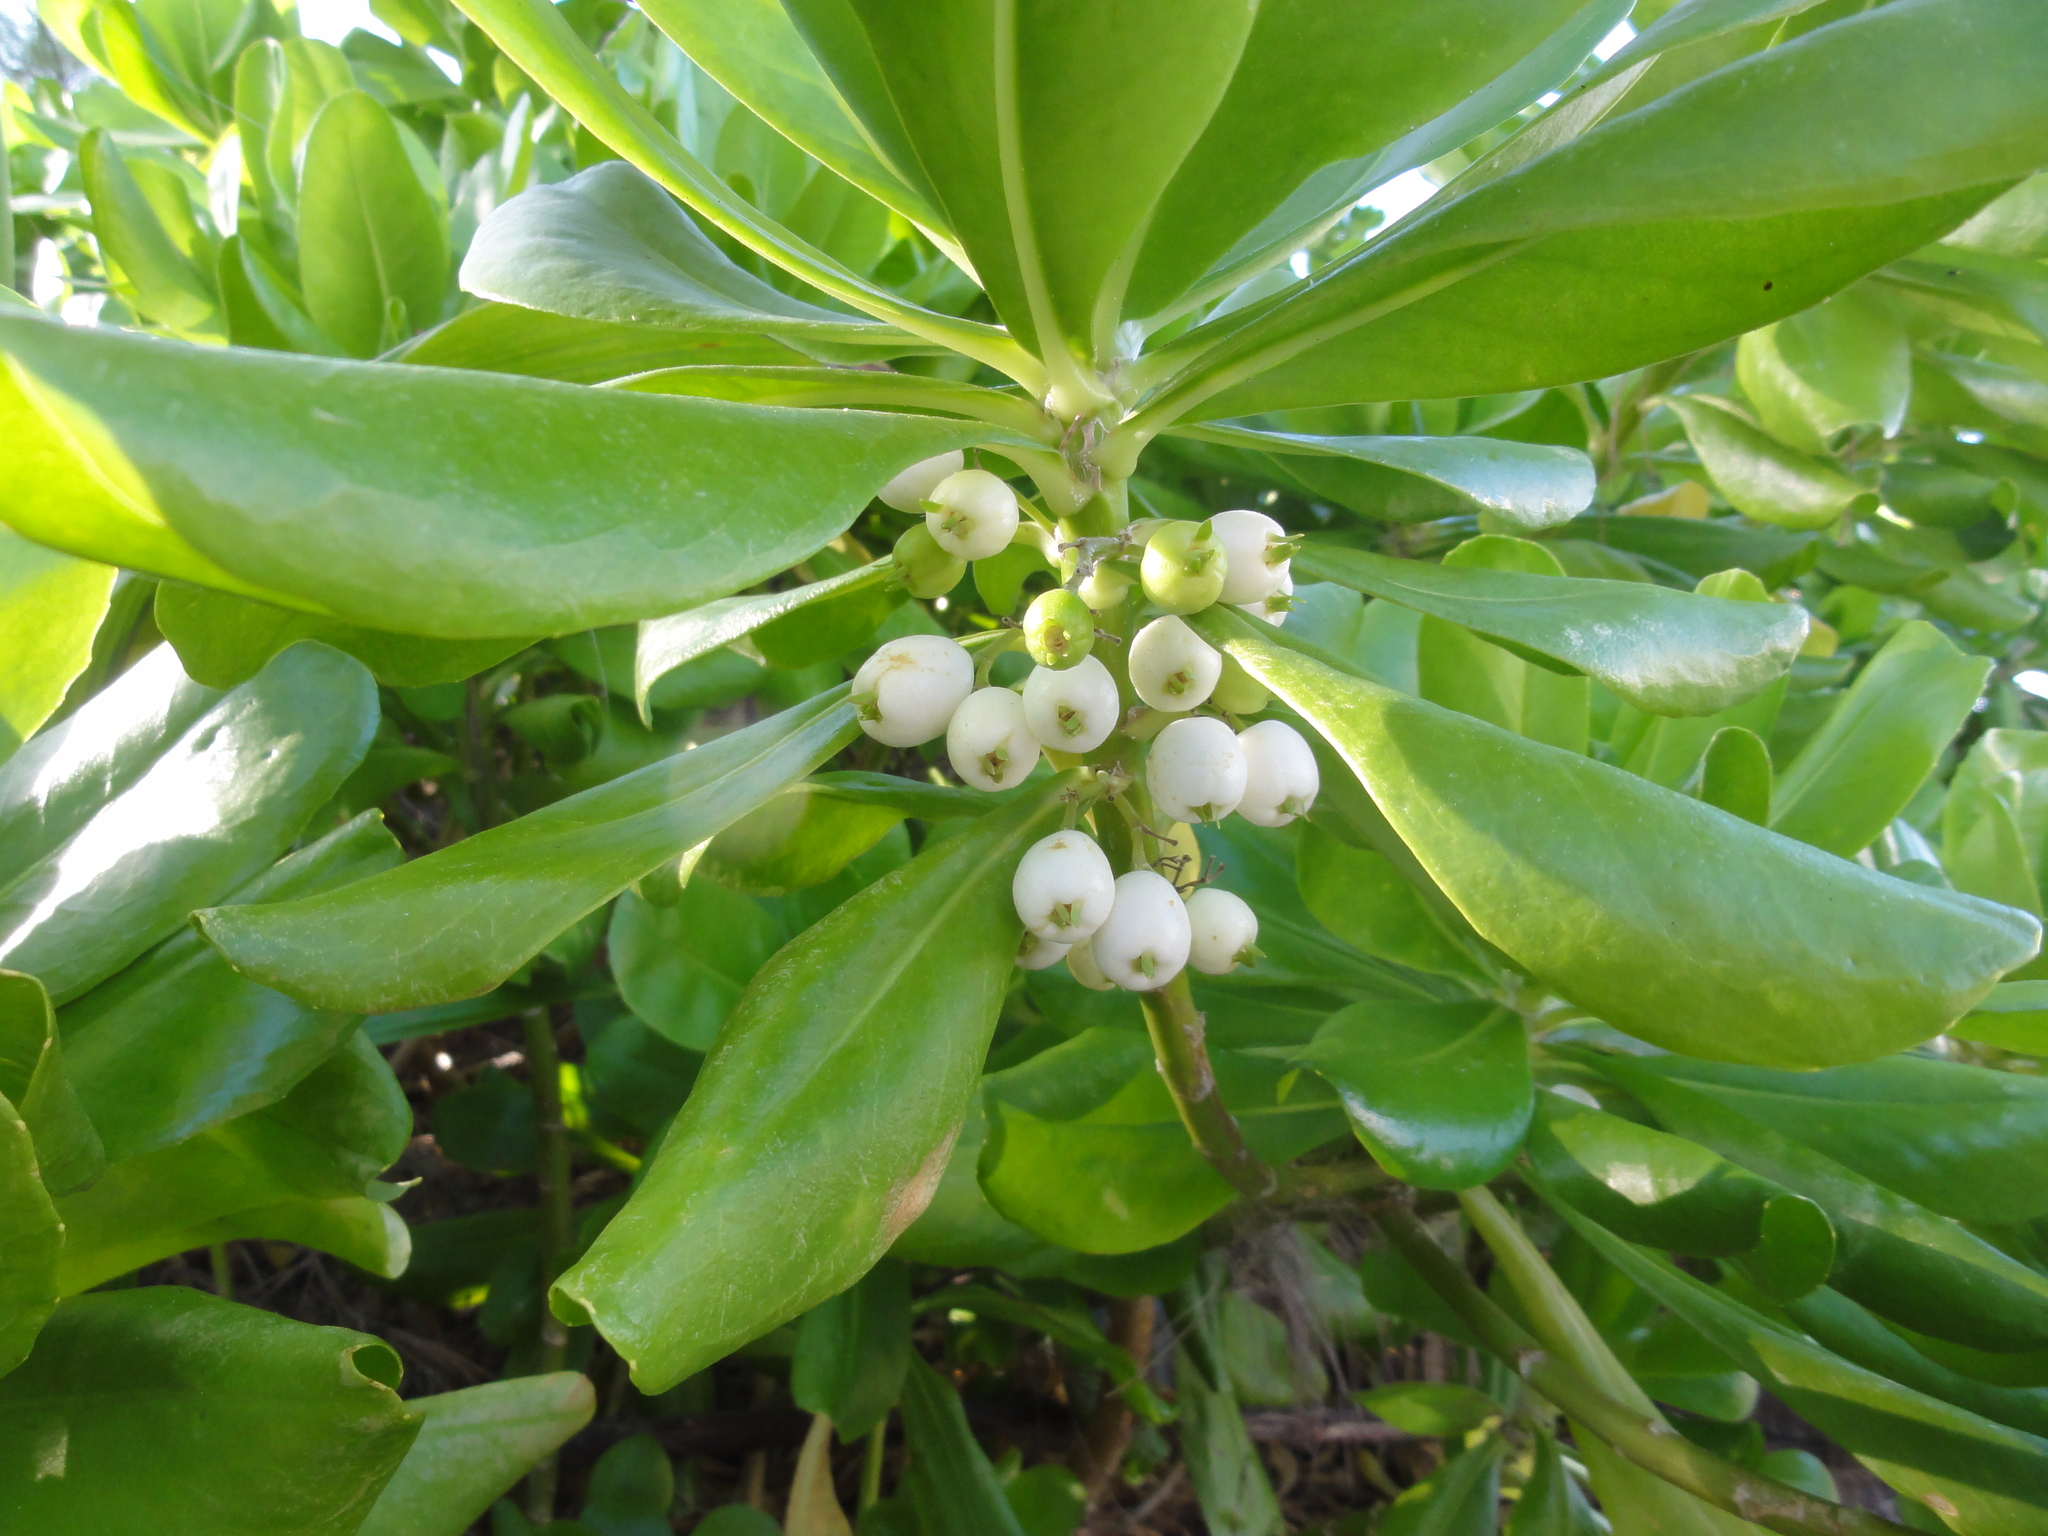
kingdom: Plantae
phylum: Tracheophyta
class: Magnoliopsida
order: Asterales
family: Goodeniaceae
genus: Scaevola
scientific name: Scaevola taccada
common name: Sea lettucetree
